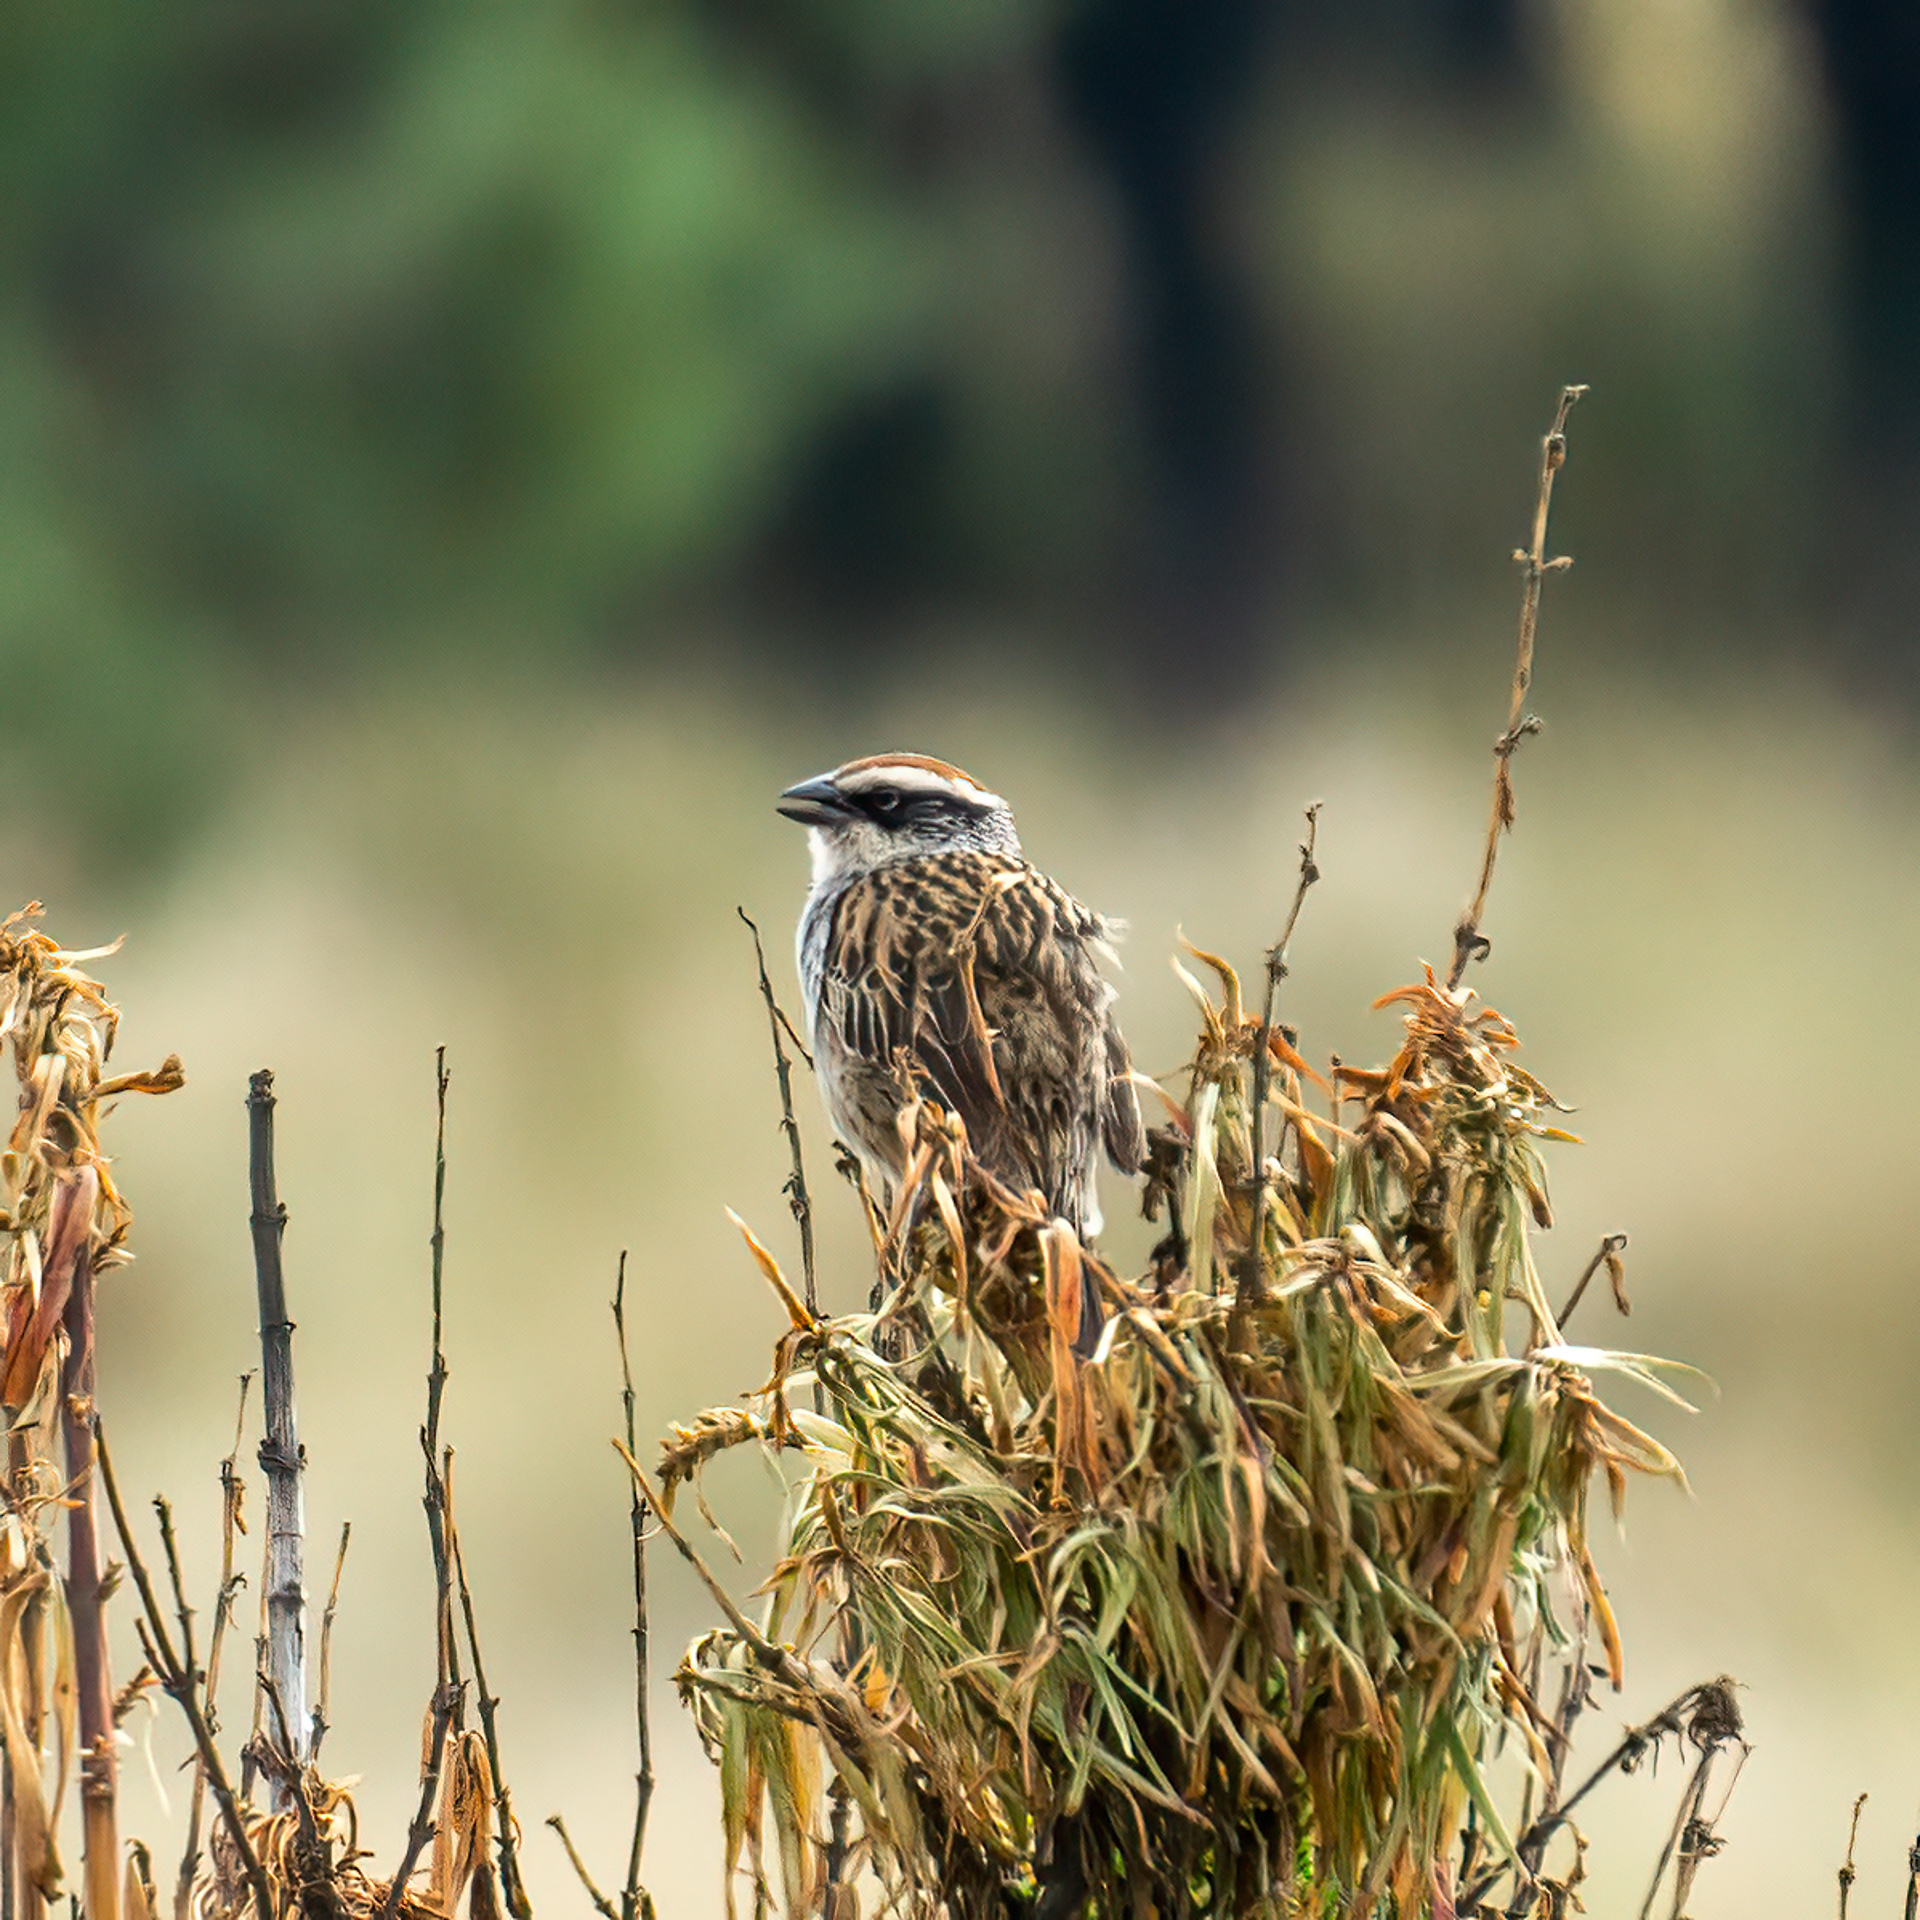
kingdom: Animalia
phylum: Chordata
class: Aves
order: Passeriformes
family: Passerellidae
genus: Oriturus
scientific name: Oriturus superciliosus
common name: Striped sparrow
